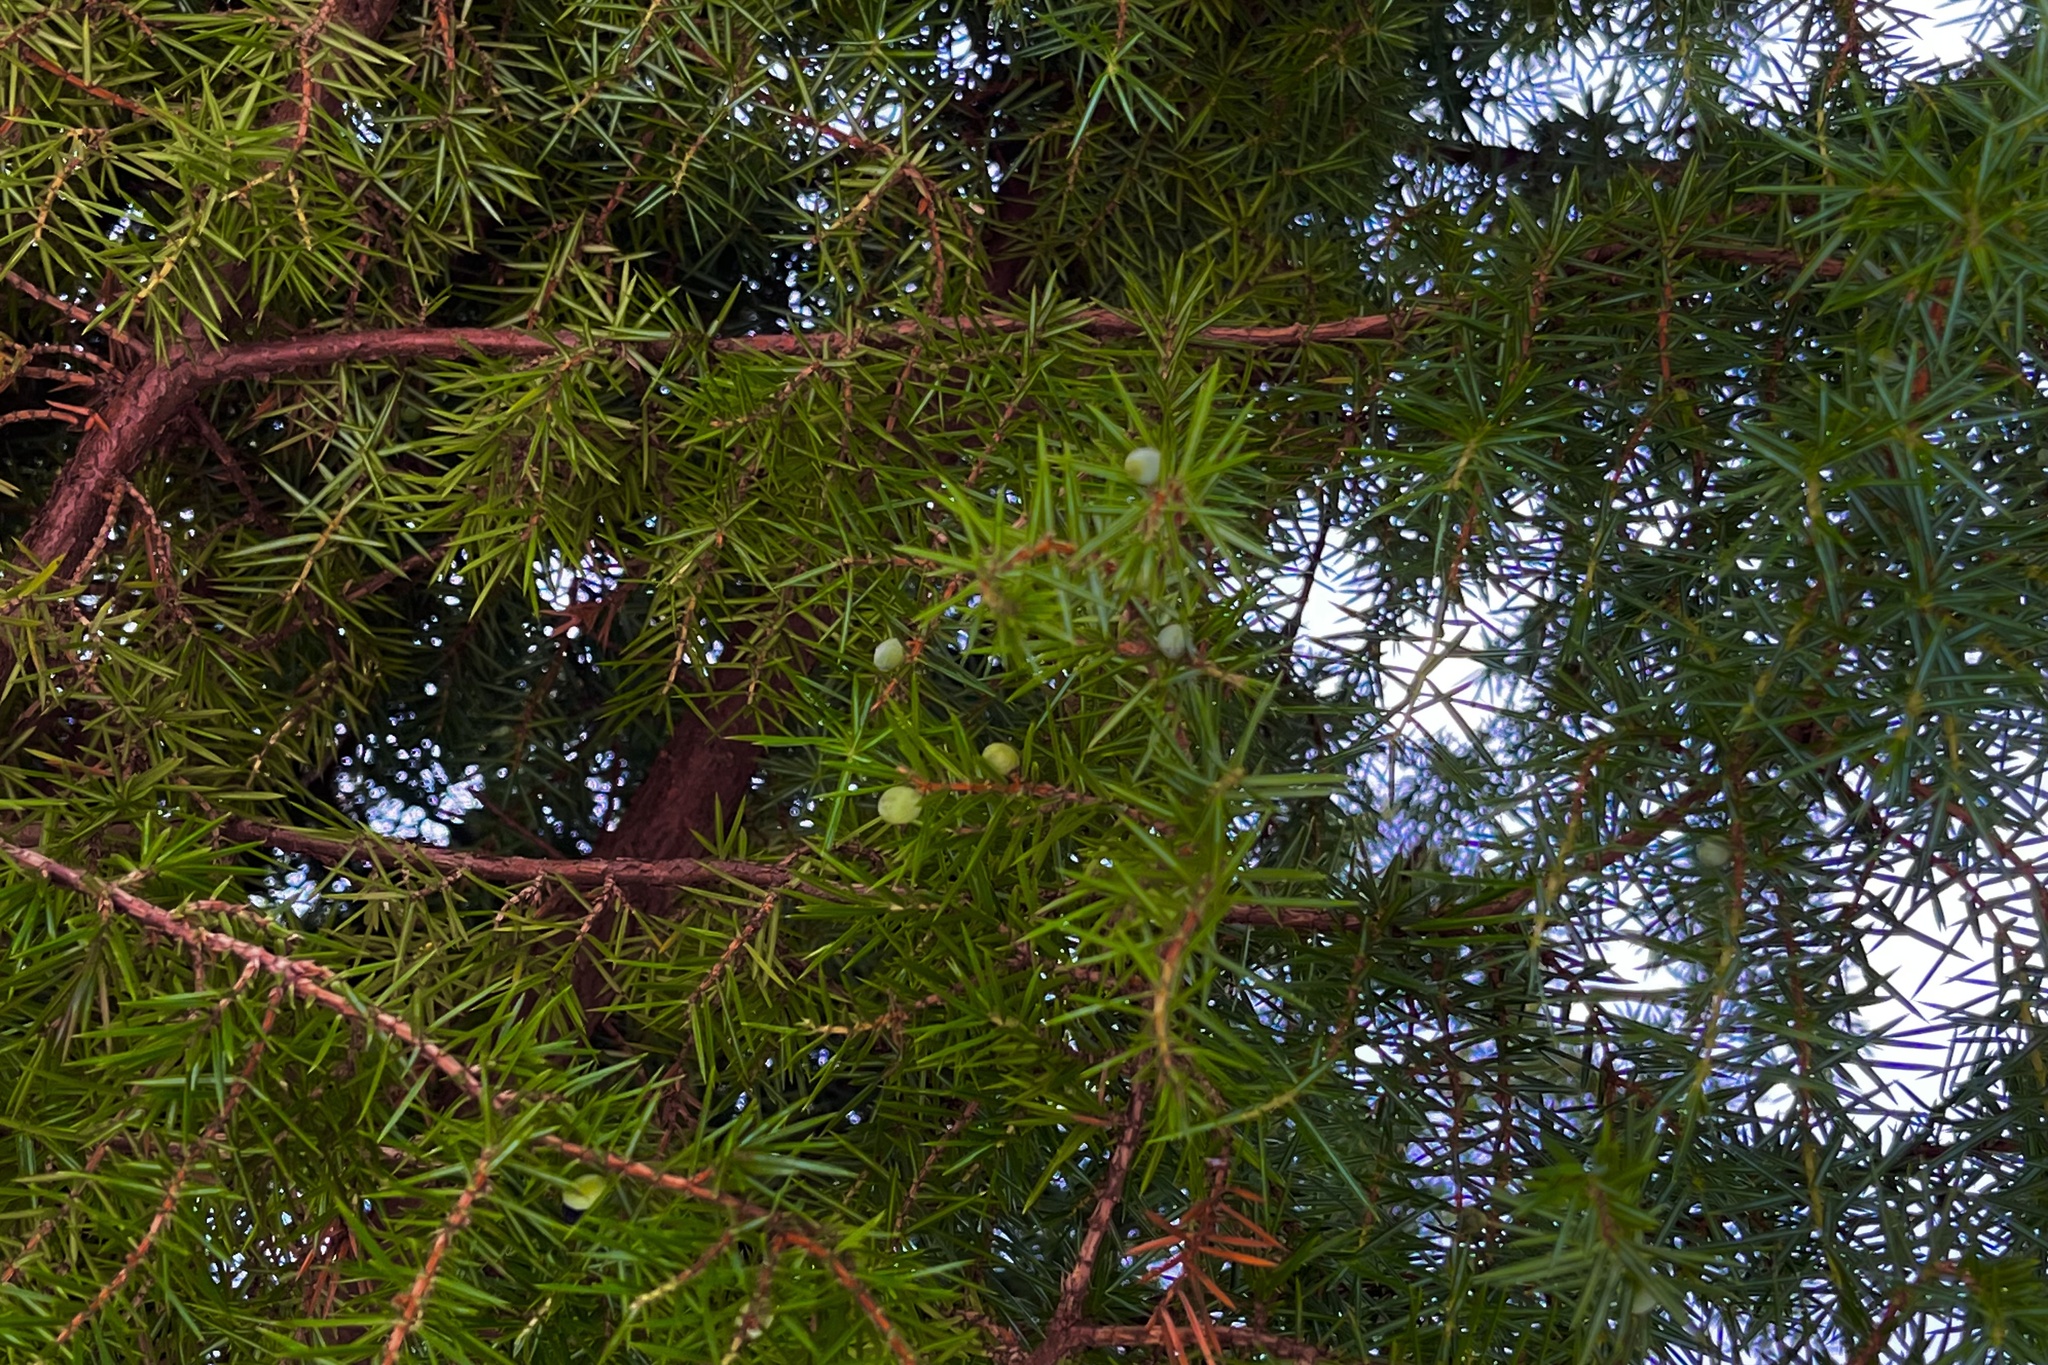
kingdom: Plantae
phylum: Tracheophyta
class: Pinopsida
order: Pinales
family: Cupressaceae
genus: Juniperus
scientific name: Juniperus communis
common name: Common juniper
